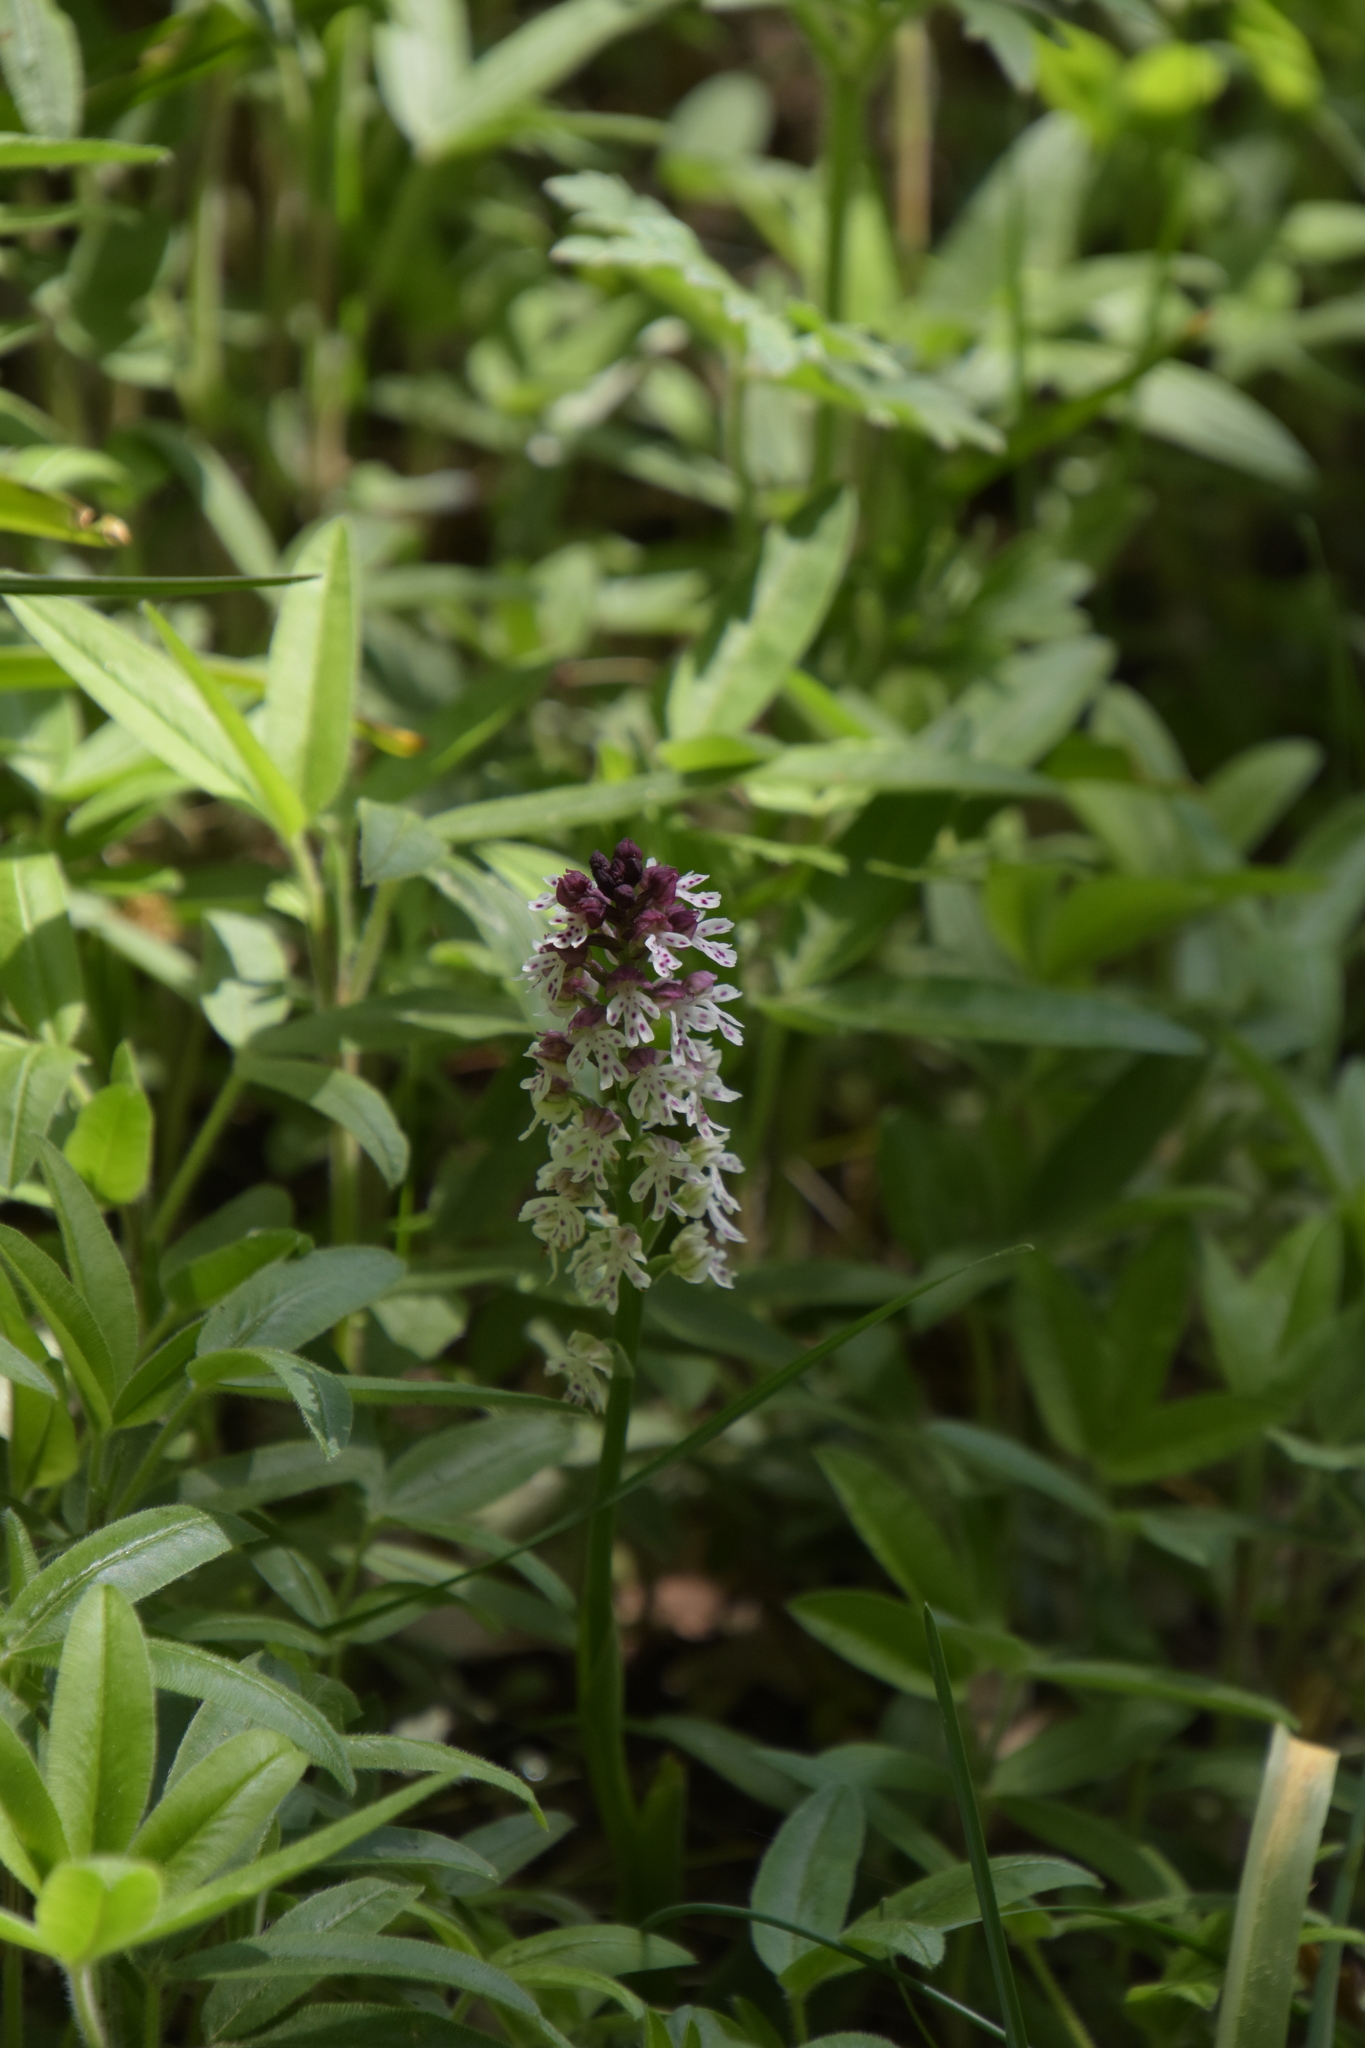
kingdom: Plantae
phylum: Tracheophyta
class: Liliopsida
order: Asparagales
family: Orchidaceae
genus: Neotinea
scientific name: Neotinea ustulata
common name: Burnt orchid
